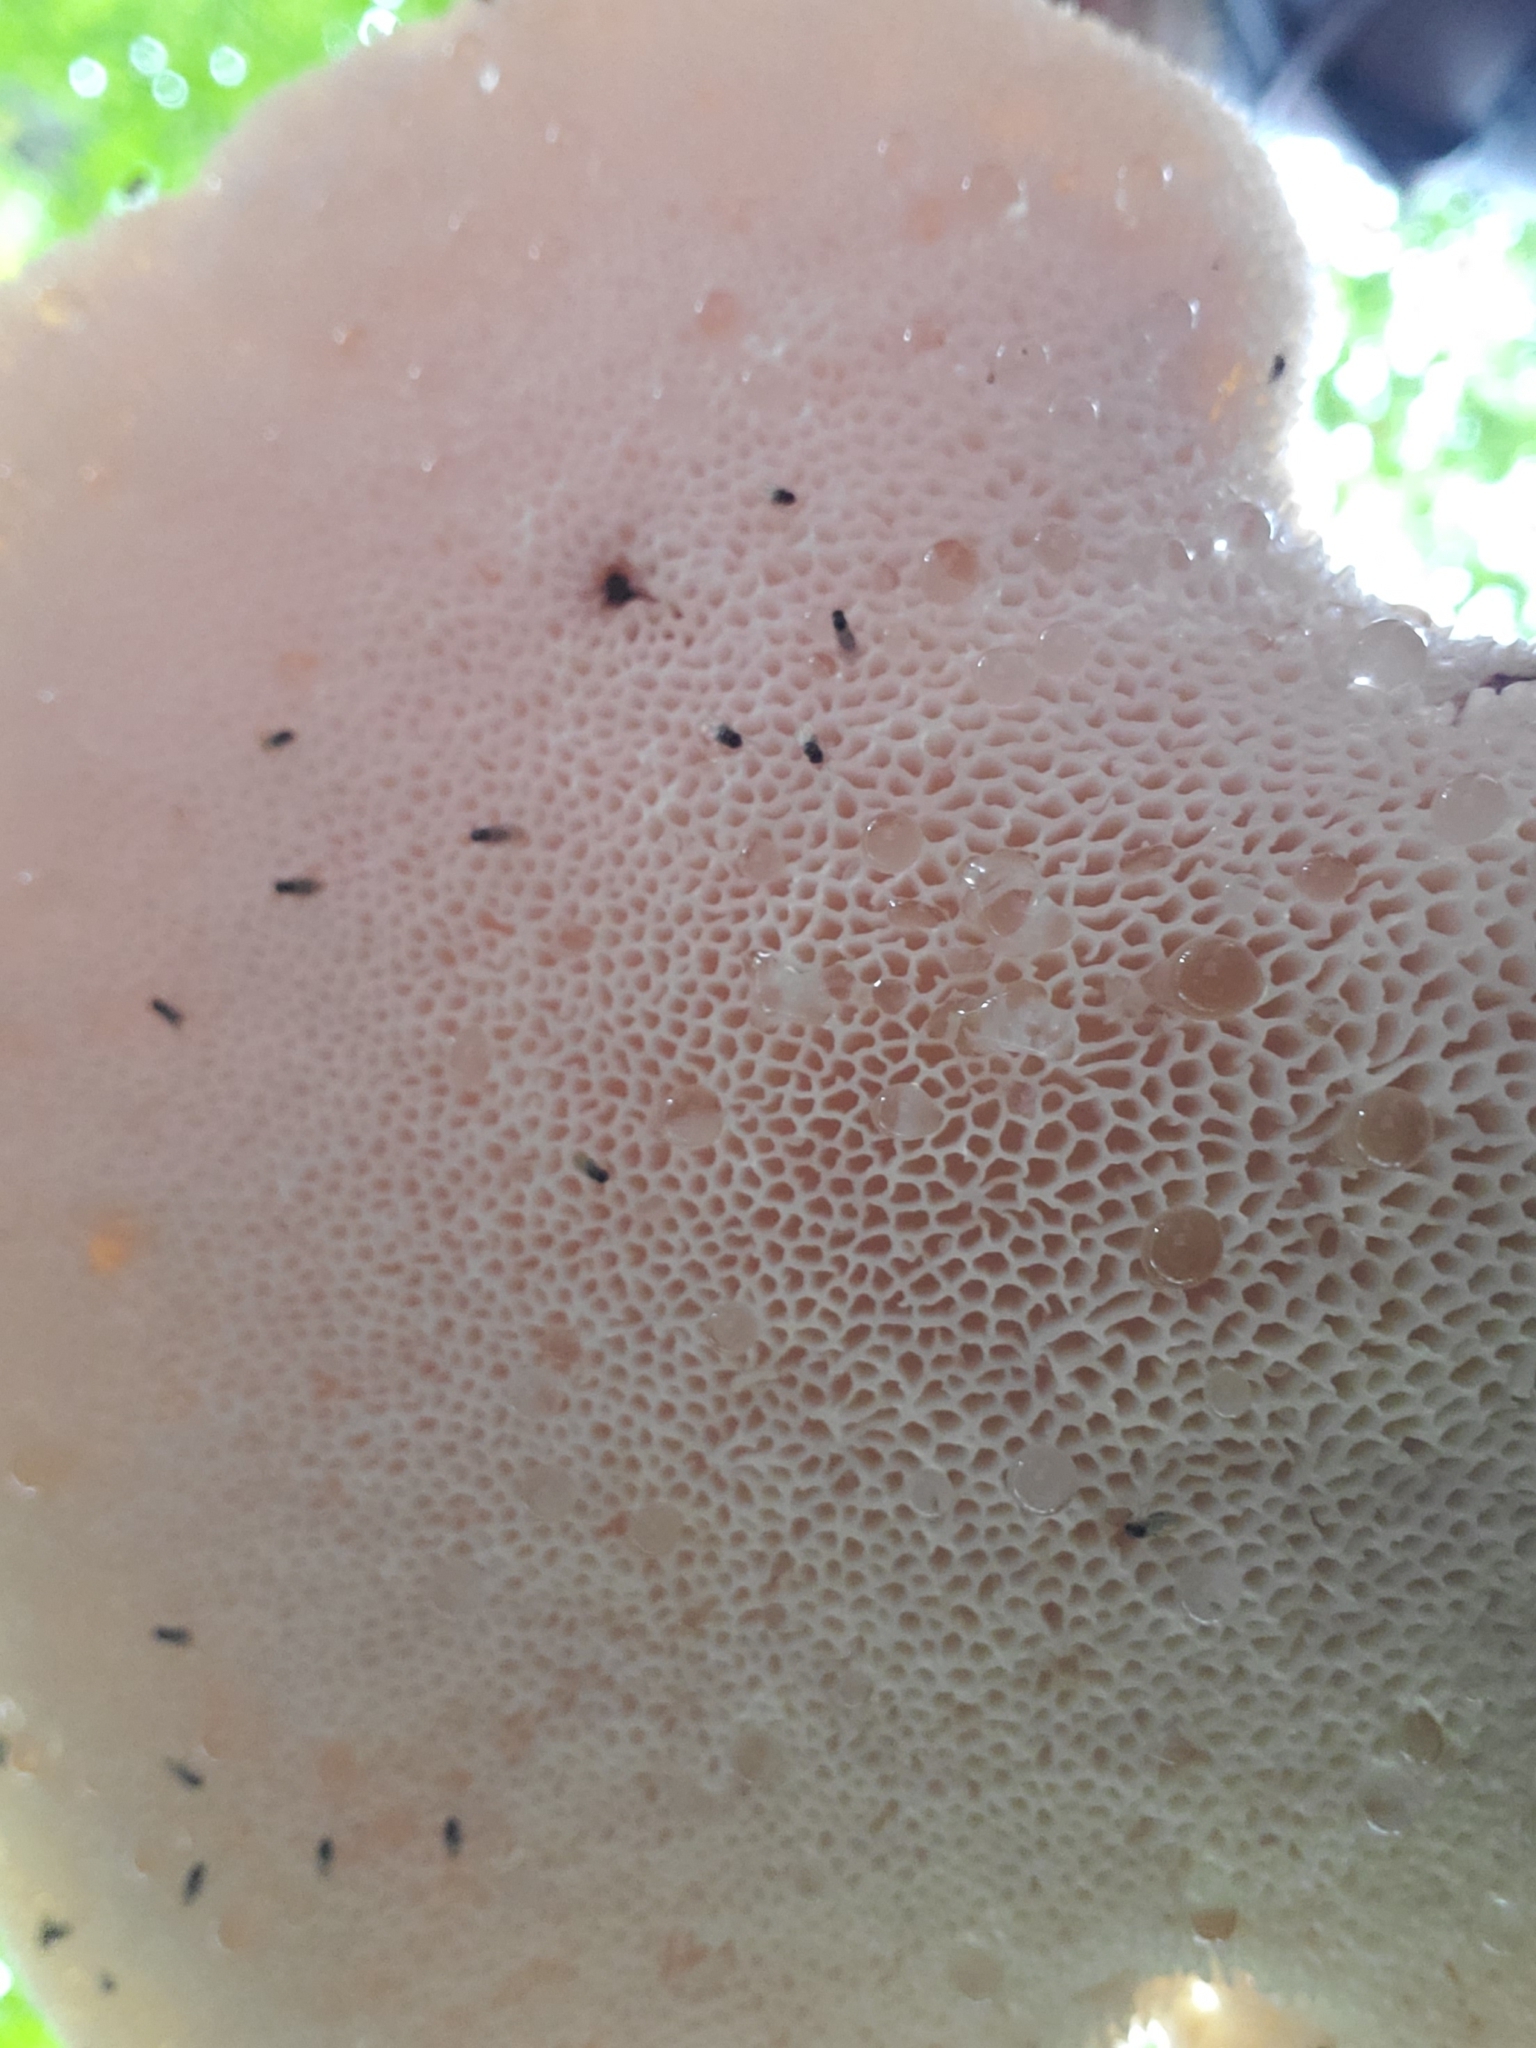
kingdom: Fungi
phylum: Basidiomycota
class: Agaricomycetes
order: Polyporales
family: Polyporaceae
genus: Cerioporus
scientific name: Cerioporus squamosus
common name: Dryad's saddle
